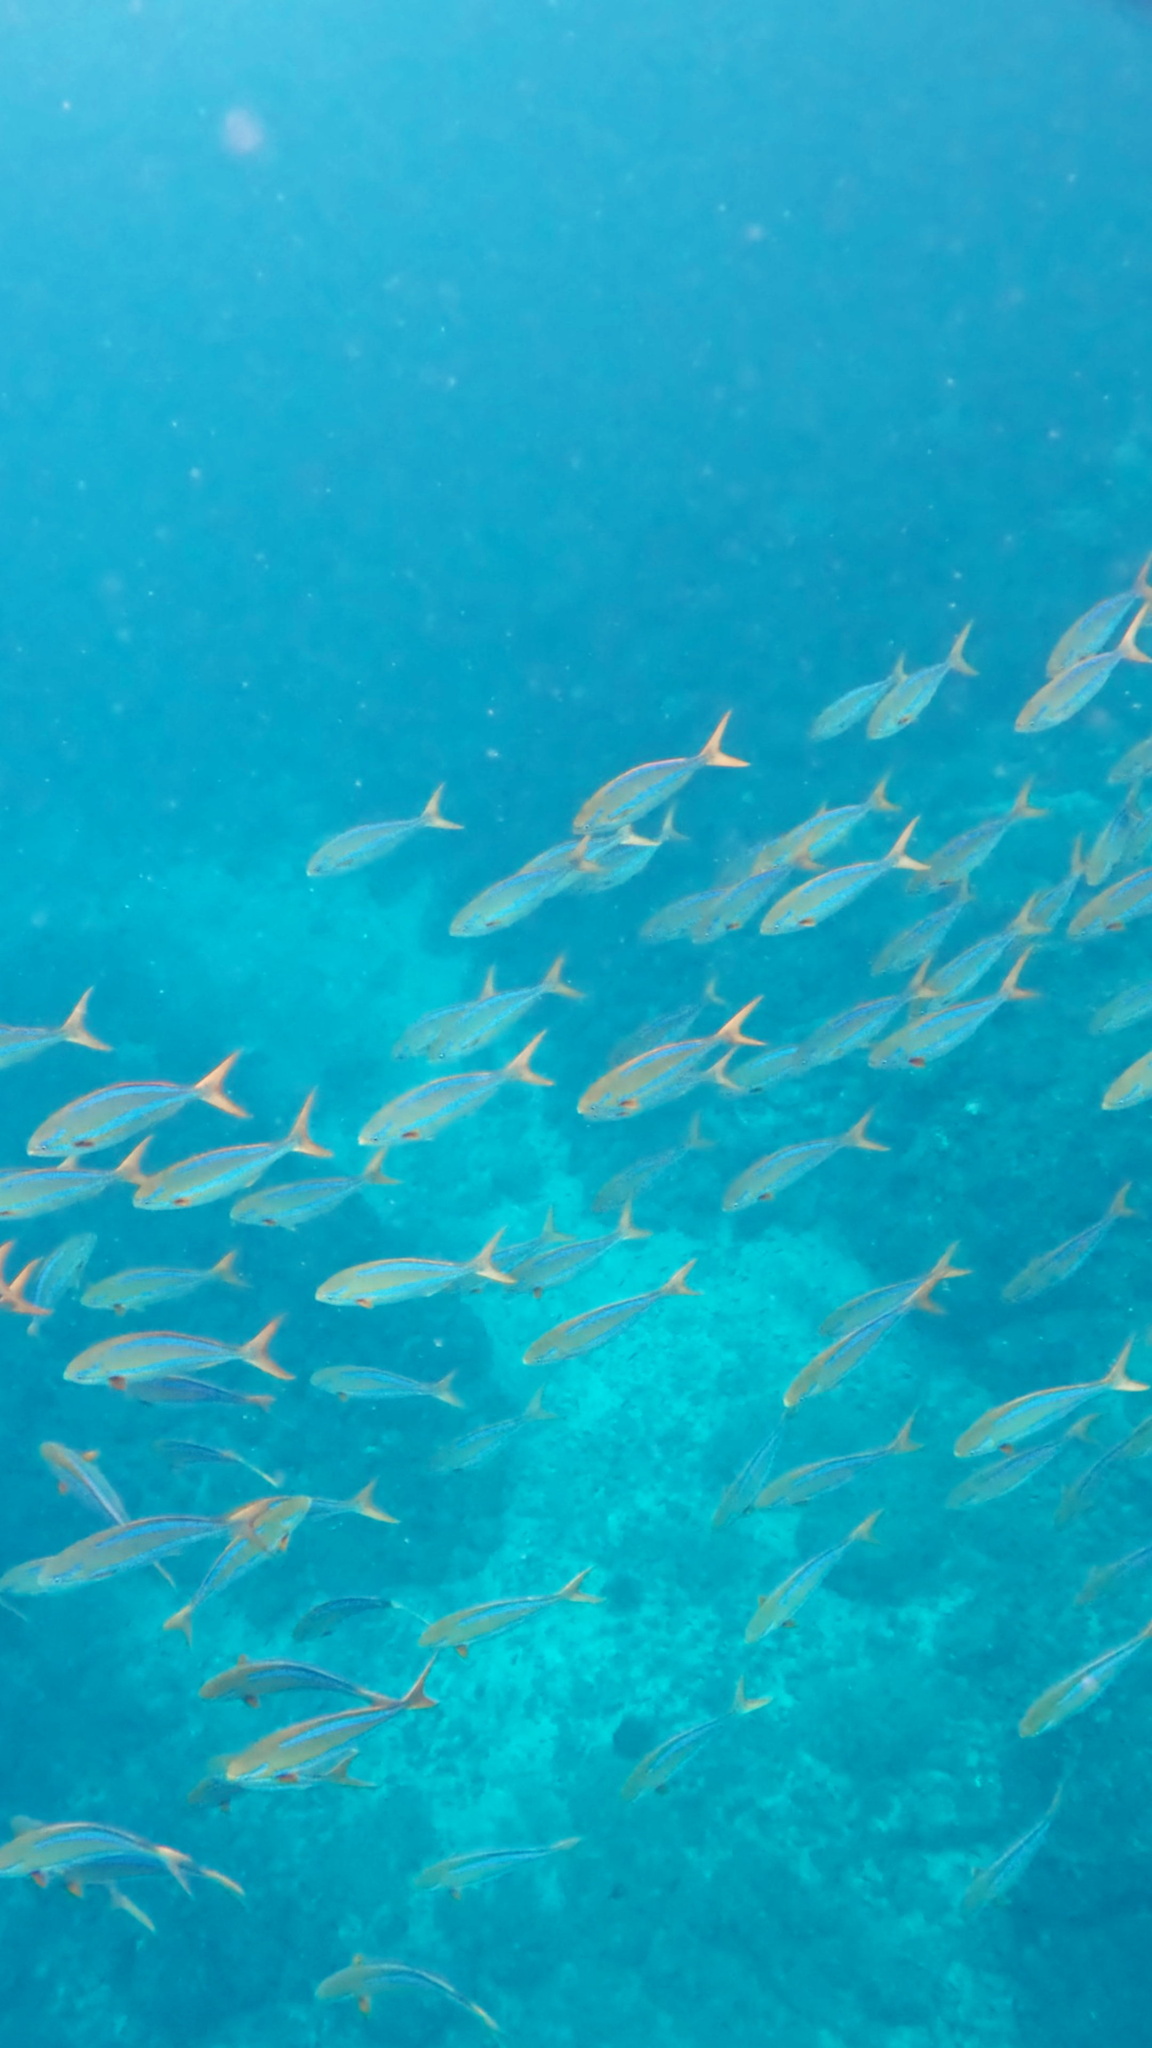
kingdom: Animalia
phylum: Chordata
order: Perciformes
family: Kyphosidae
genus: Kyphosus
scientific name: Kyphosus ocyurus
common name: Bluestriped chub
